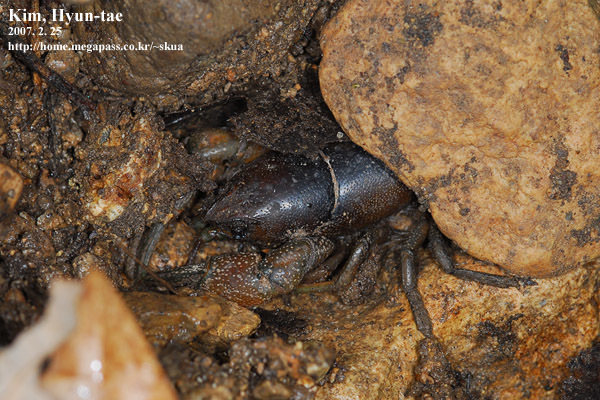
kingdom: Animalia
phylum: Arthropoda
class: Malacostraca
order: Decapoda
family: Cambaroididae
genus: Cambaroides
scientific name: Cambaroides similis
